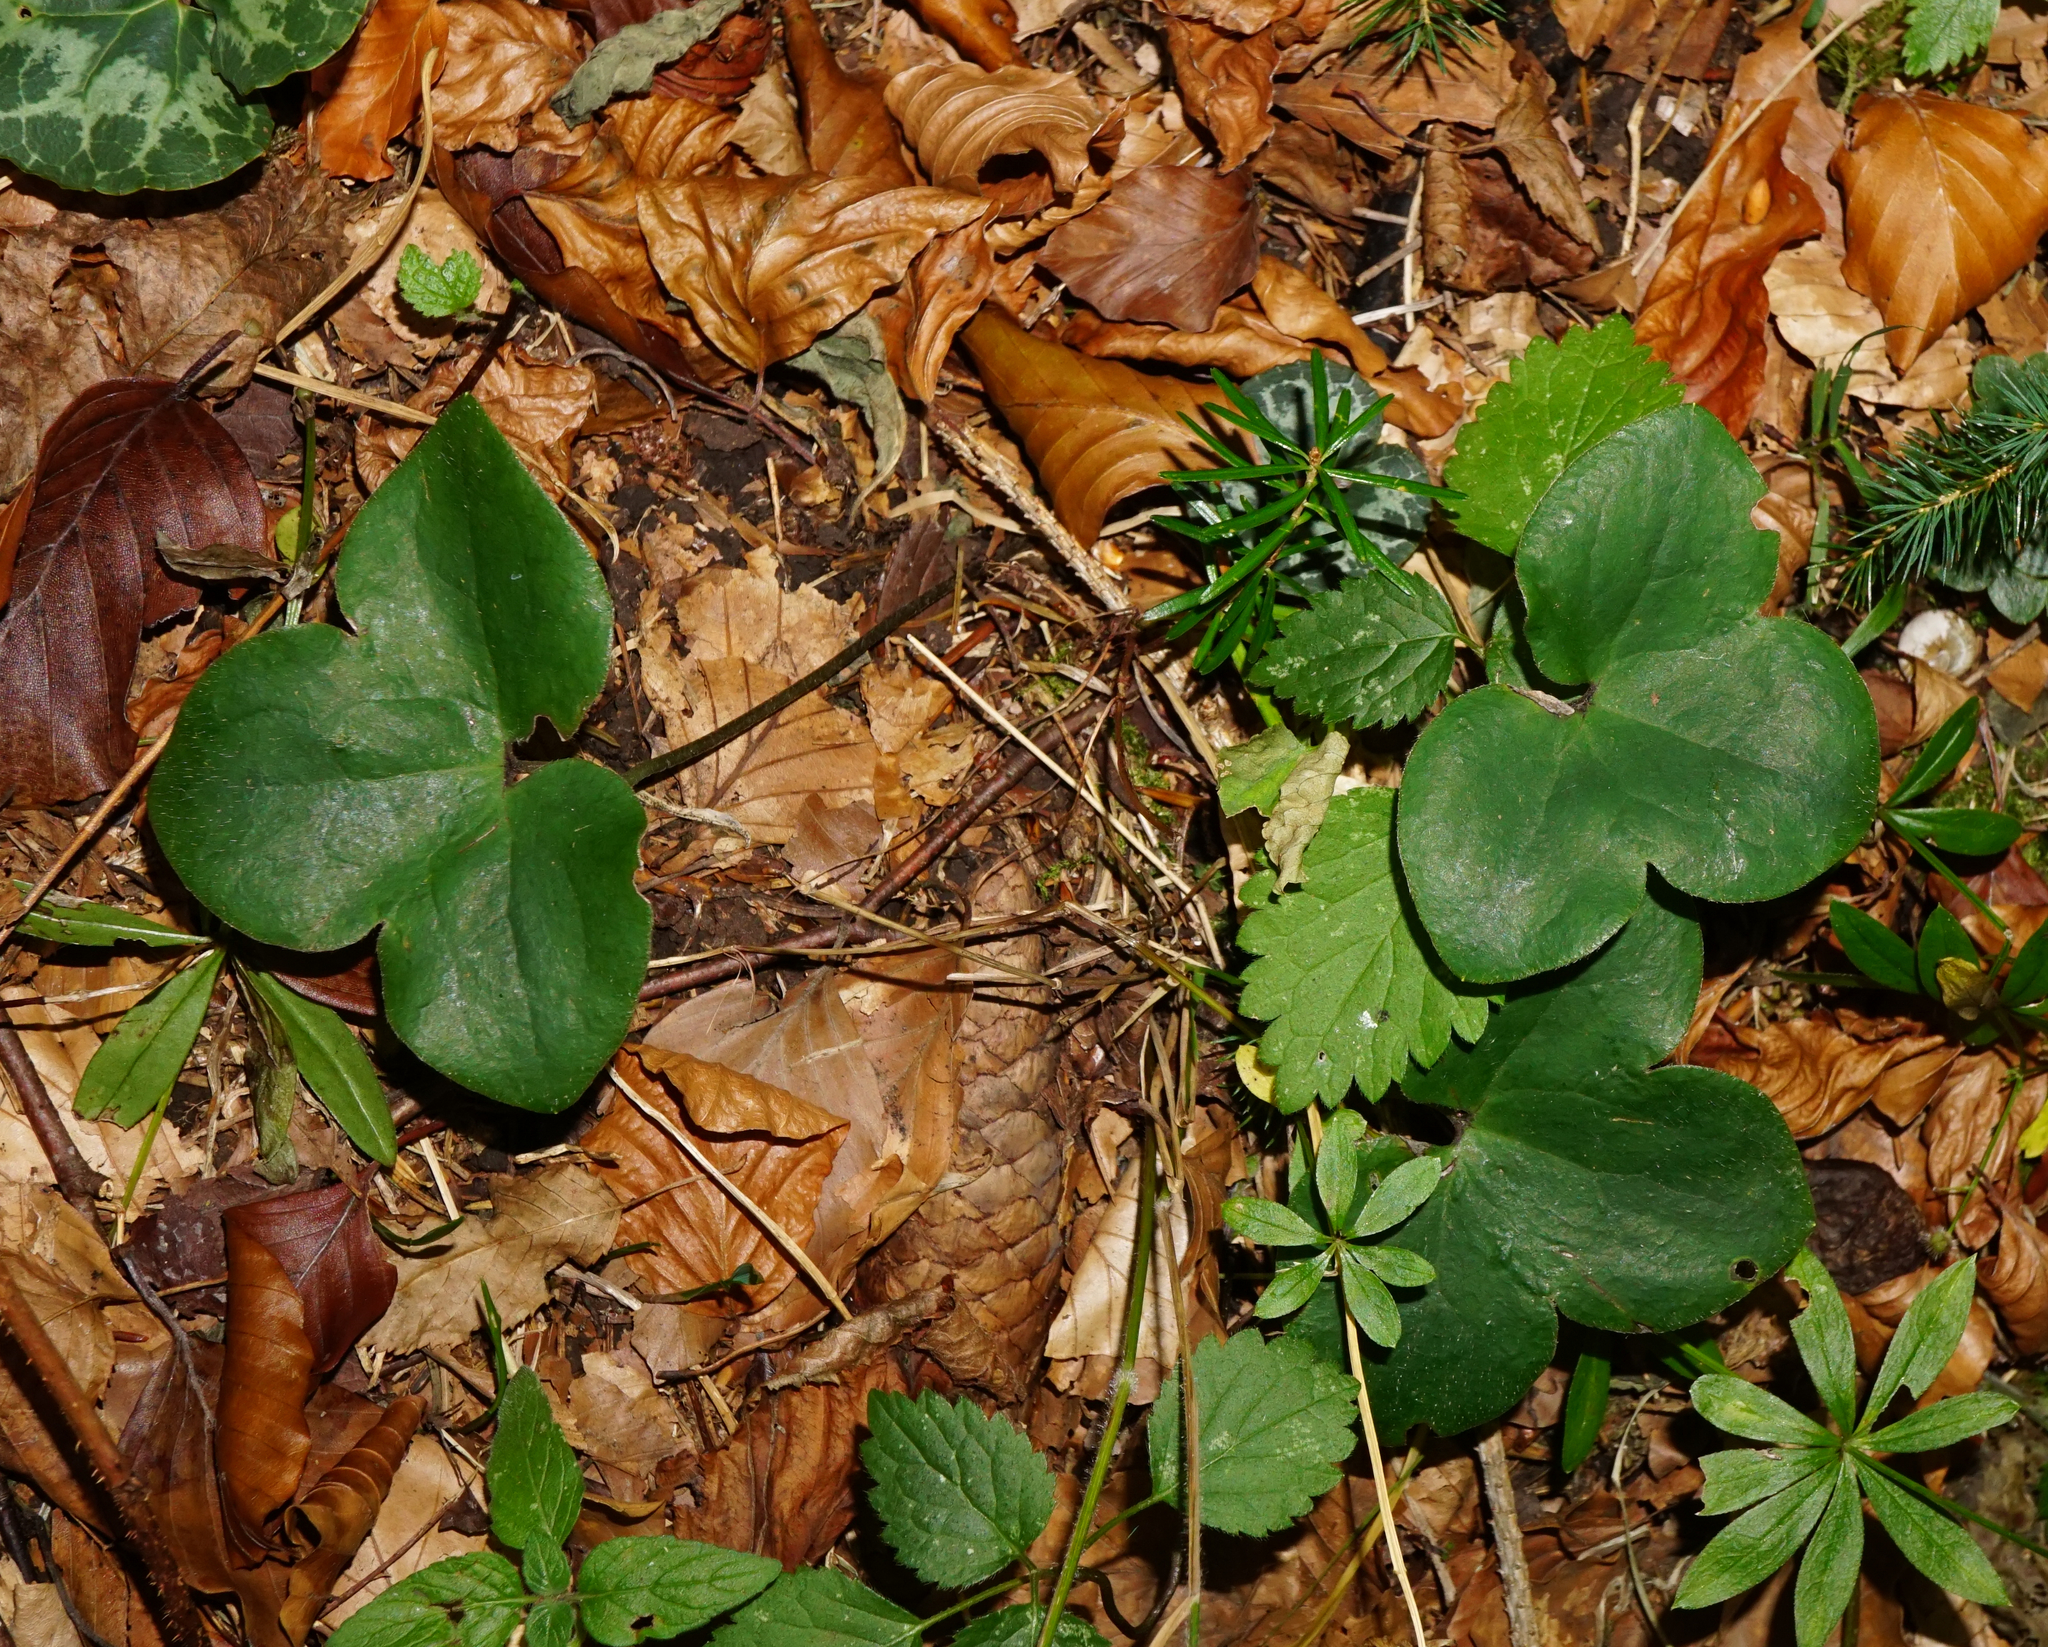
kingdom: Plantae
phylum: Tracheophyta
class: Magnoliopsida
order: Ranunculales
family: Ranunculaceae
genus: Hepatica
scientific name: Hepatica nobilis
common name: Liverleaf
